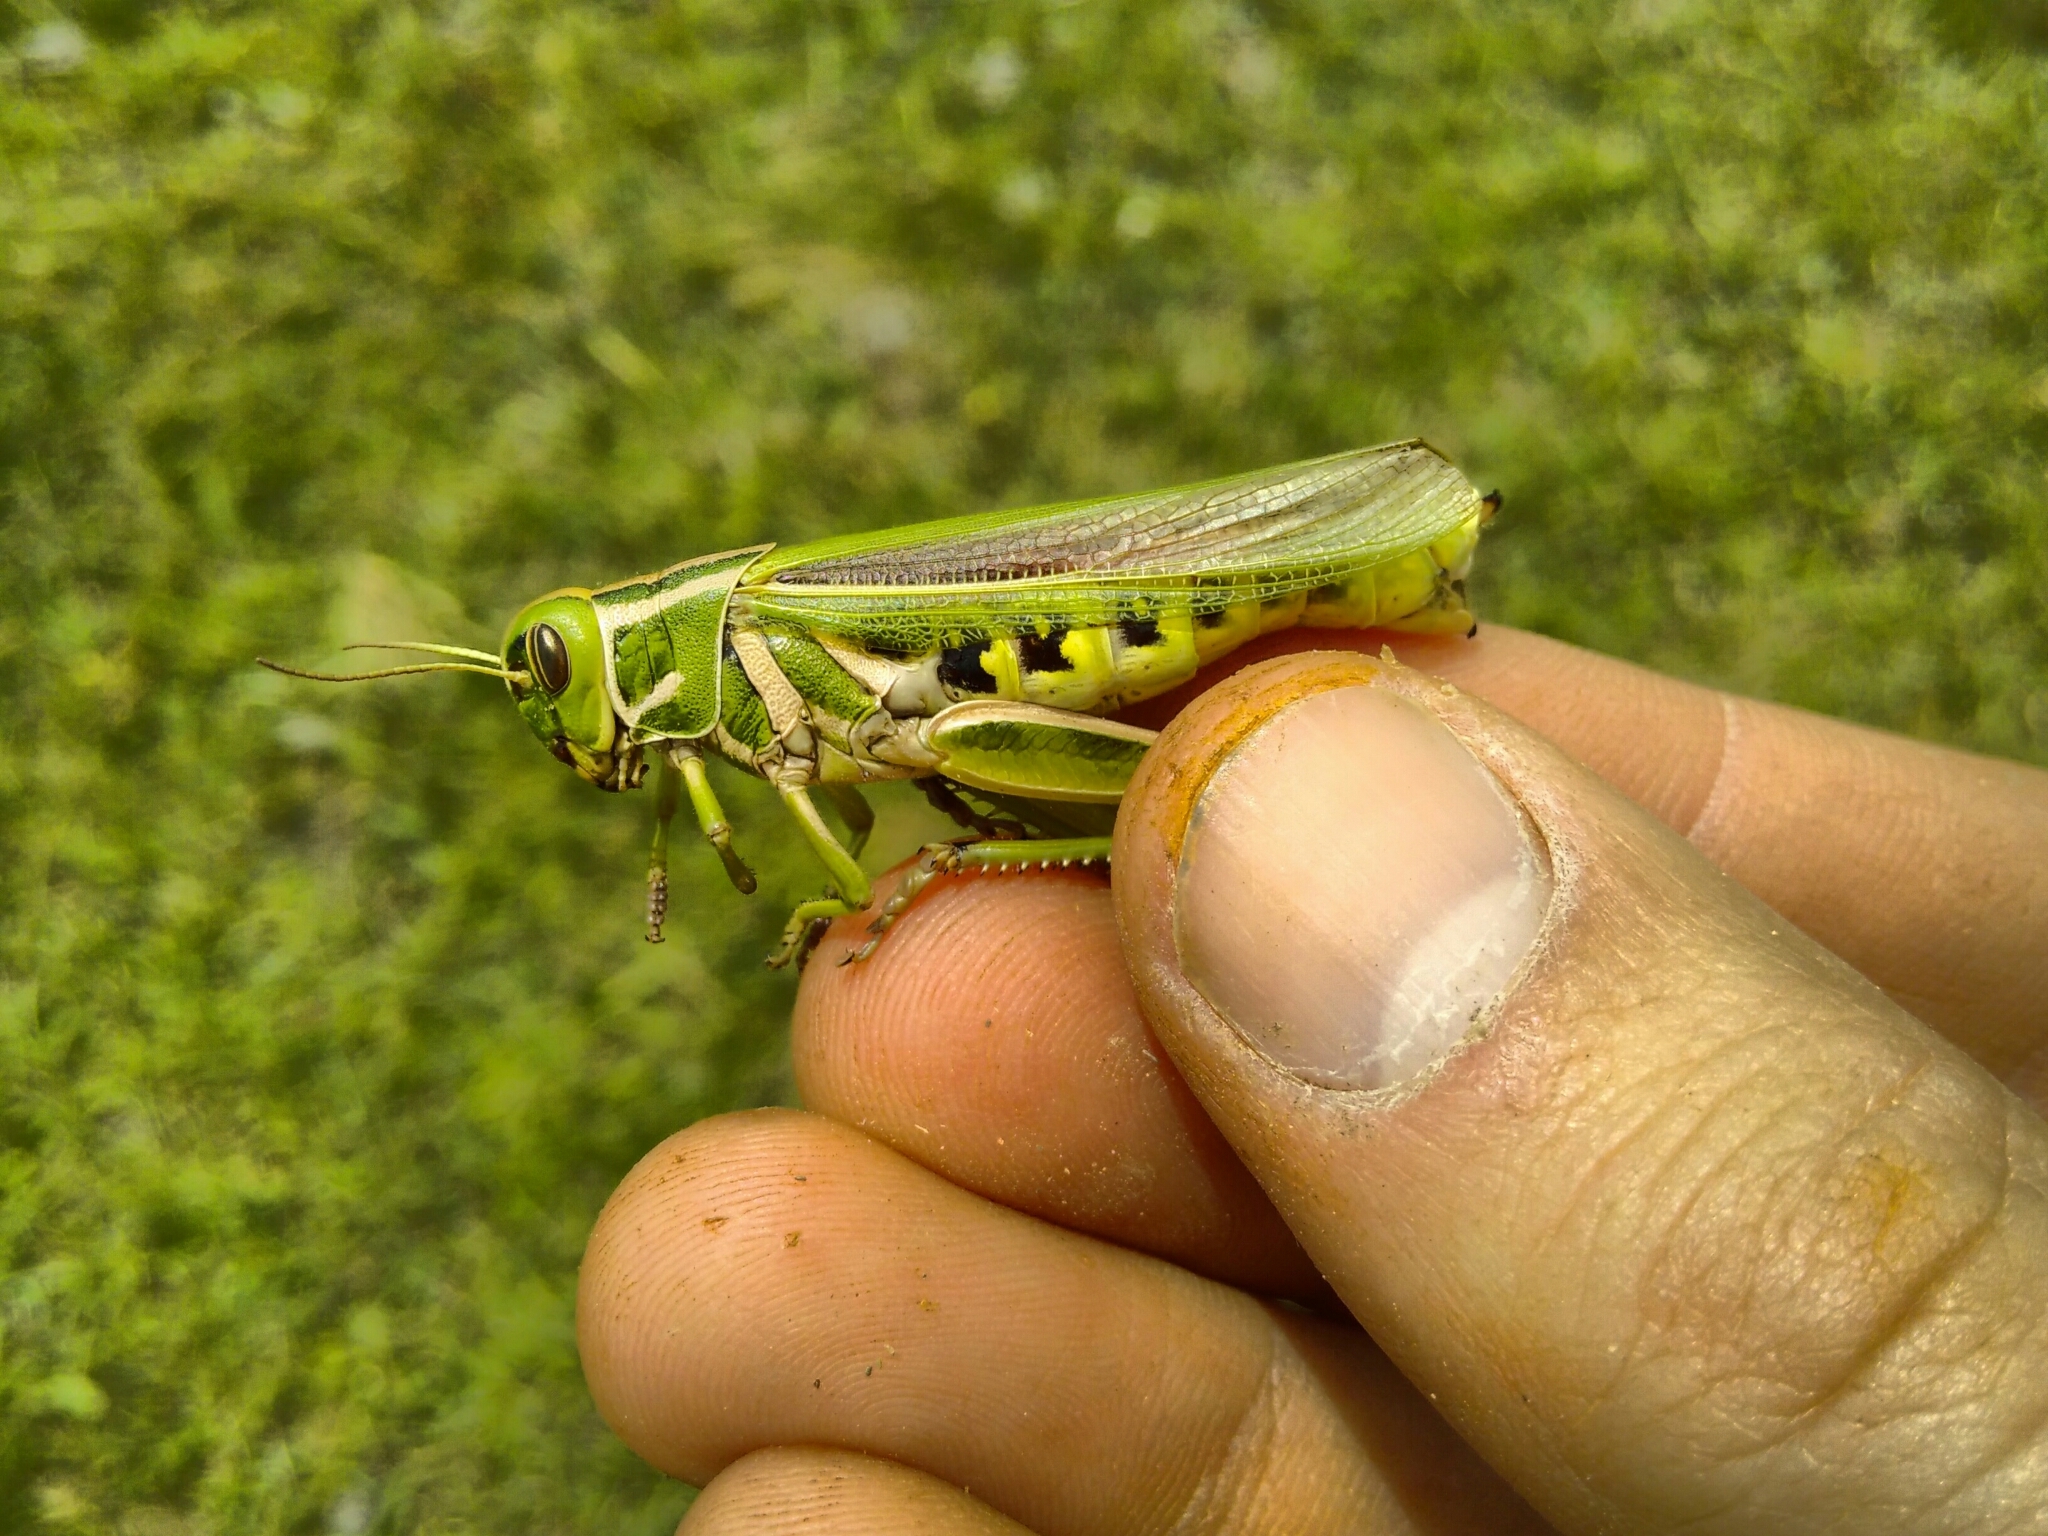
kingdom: Animalia
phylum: Arthropoda
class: Insecta
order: Orthoptera
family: Romaleidae
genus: Diponthus
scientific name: Diponthus electus
